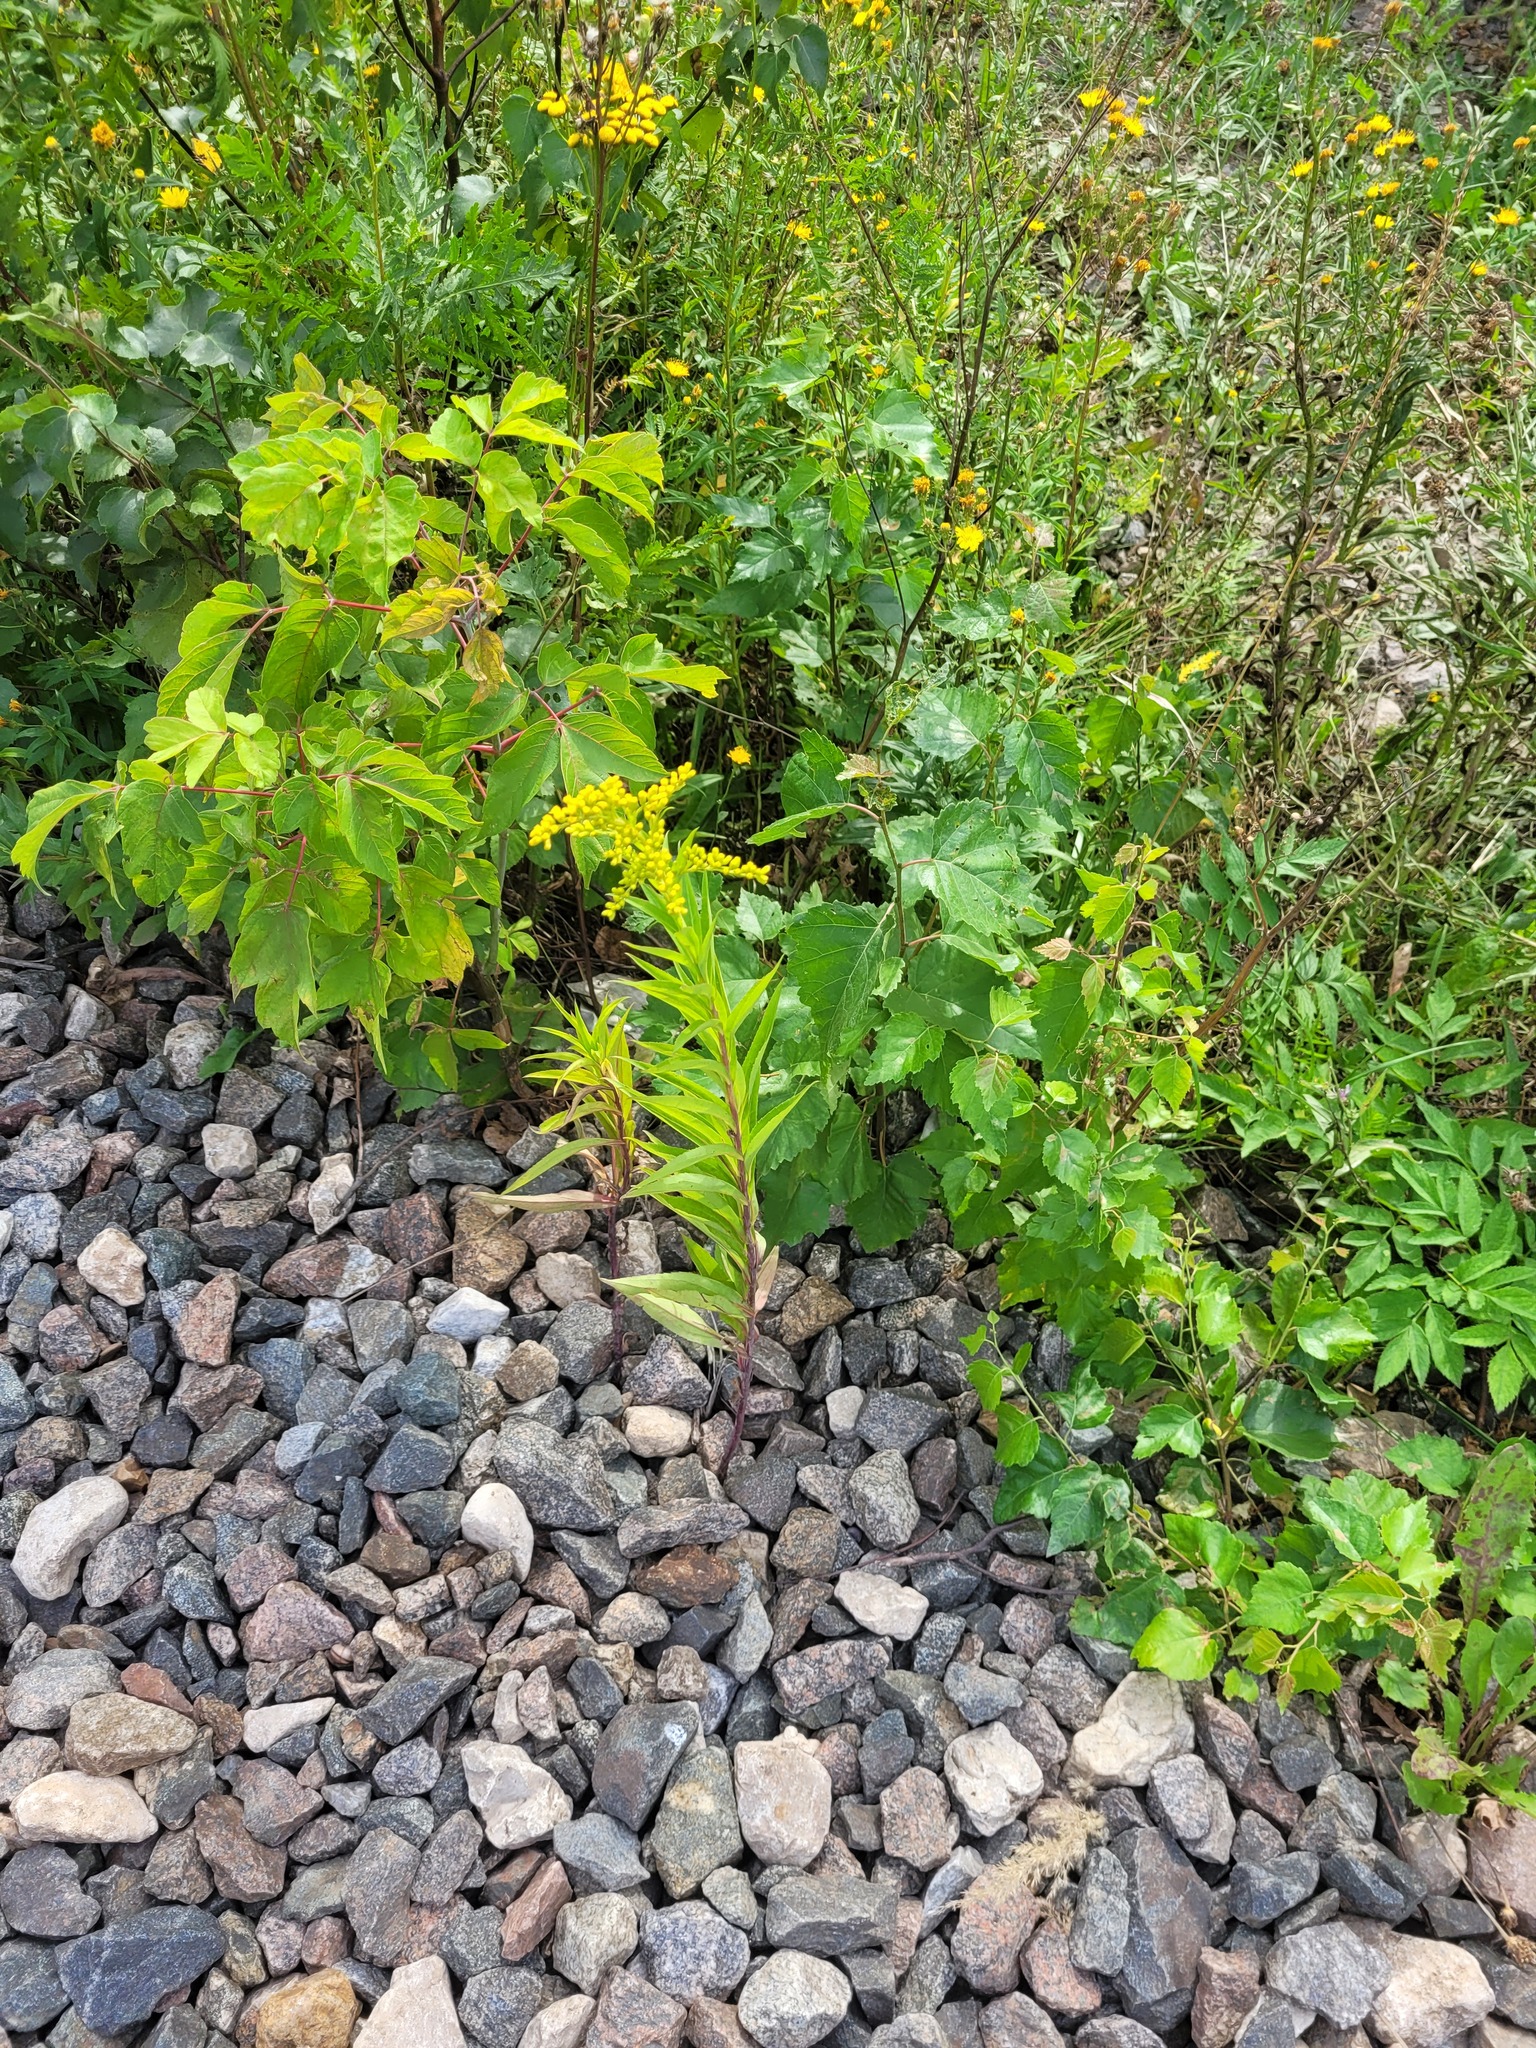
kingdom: Plantae
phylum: Tracheophyta
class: Magnoliopsida
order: Asterales
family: Asteraceae
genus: Solidago
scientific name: Solidago gigantea
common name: Giant goldenrod
